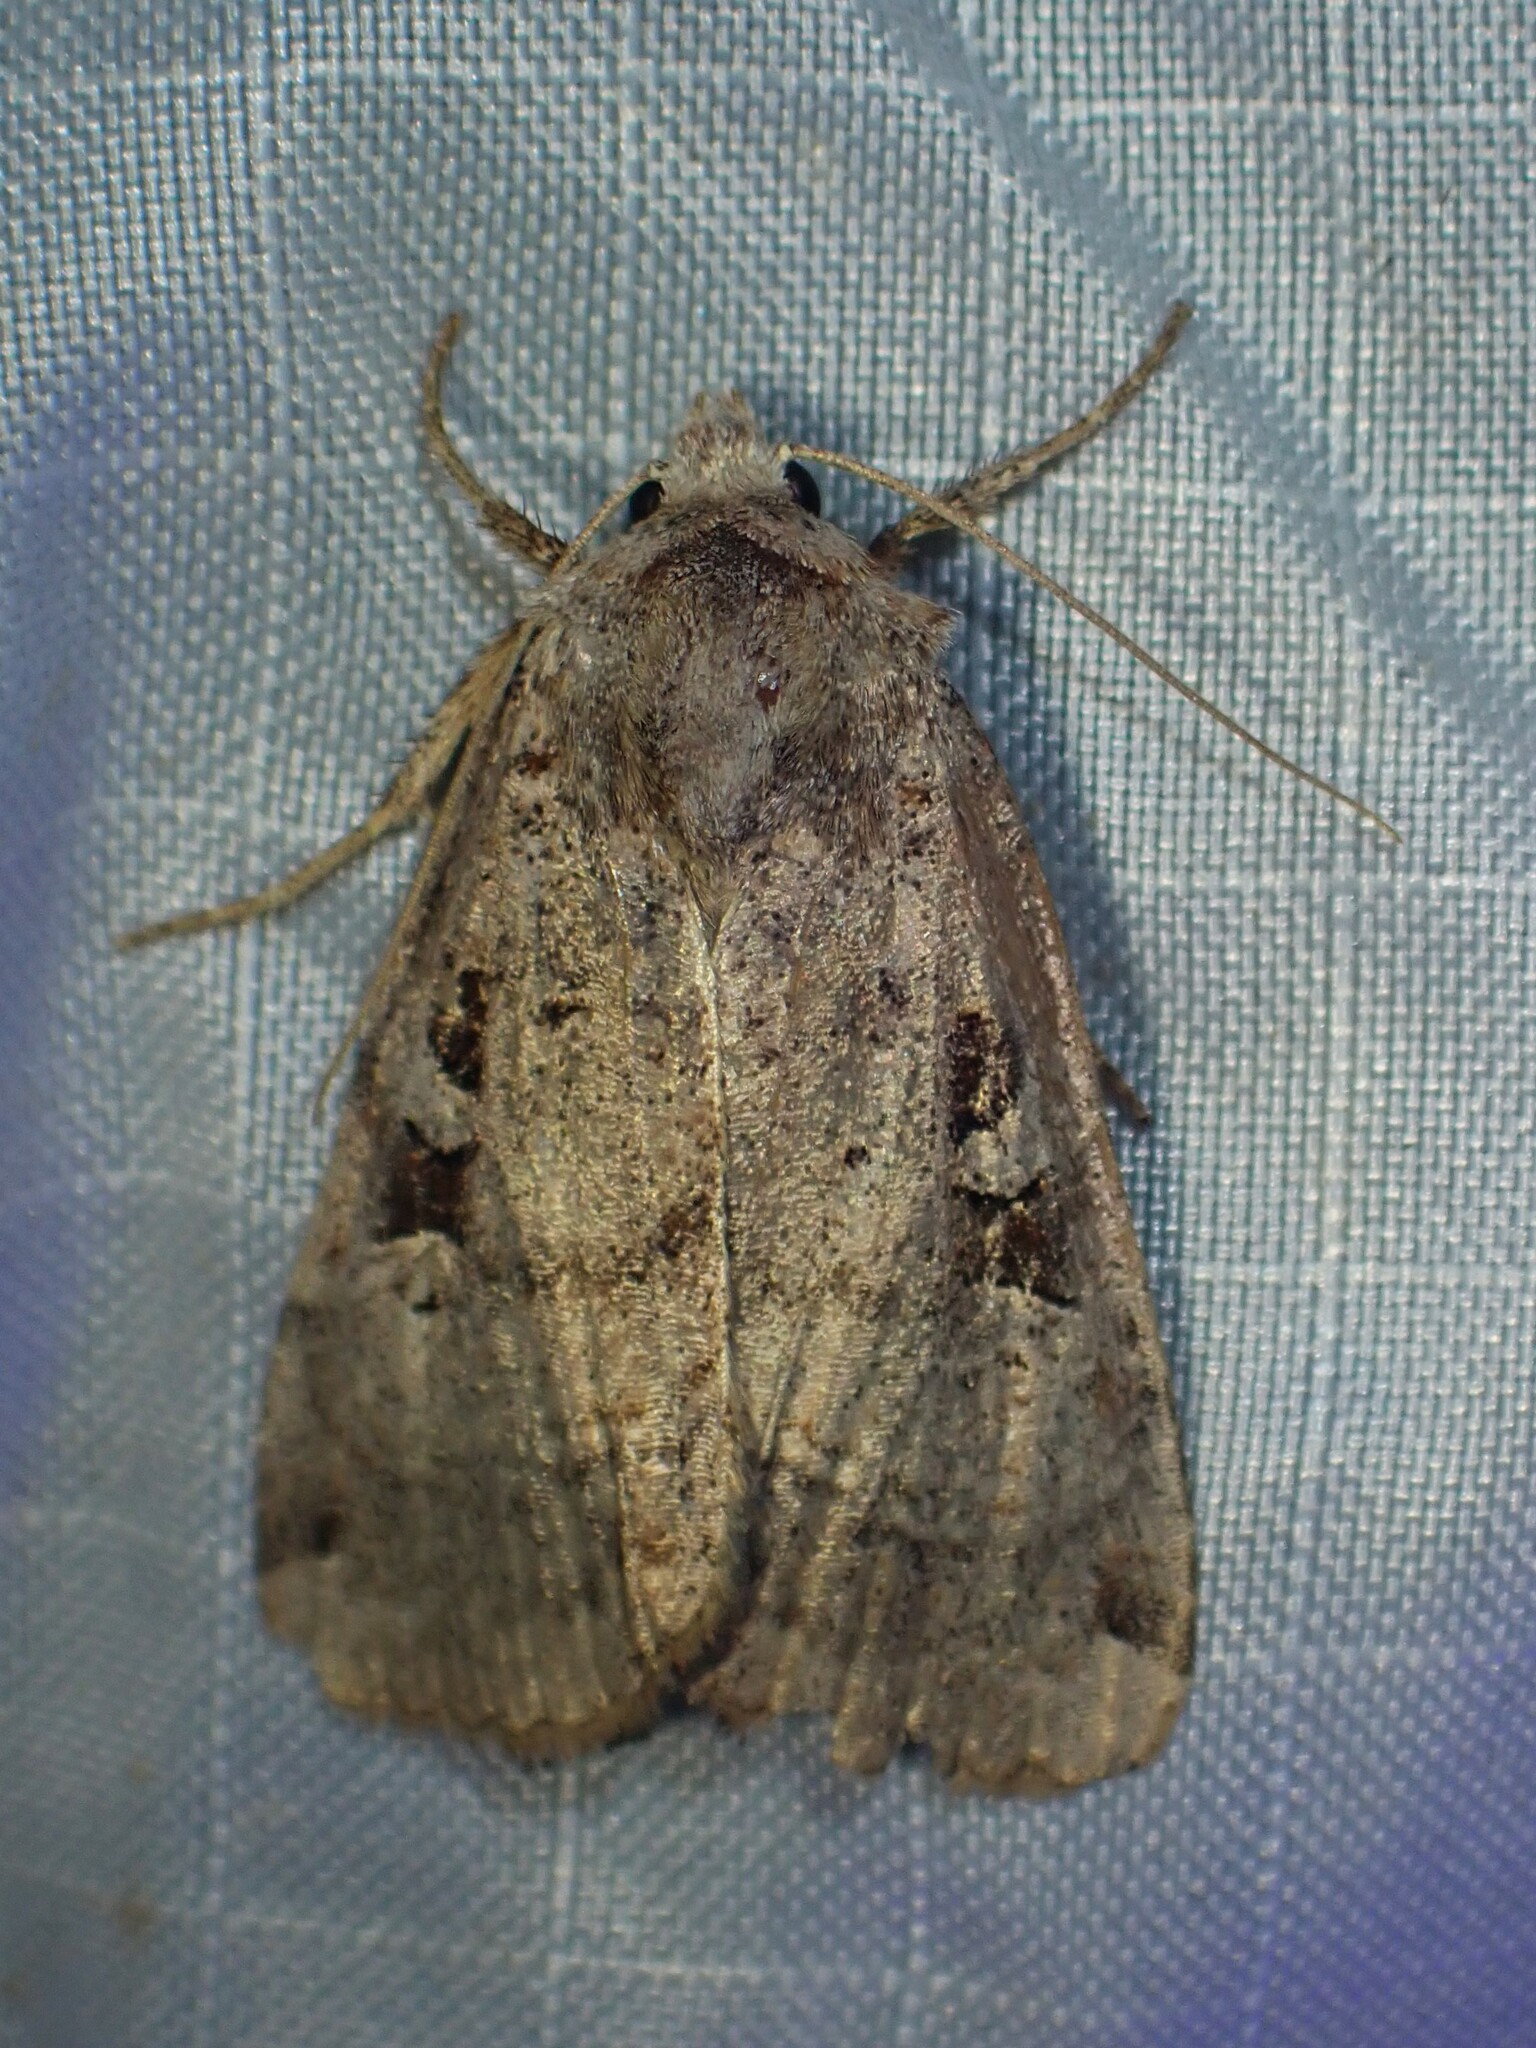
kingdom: Animalia
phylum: Arthropoda
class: Insecta
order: Lepidoptera
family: Noctuidae
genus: Xestia
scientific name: Xestia normaniana
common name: Norman's dart moth
